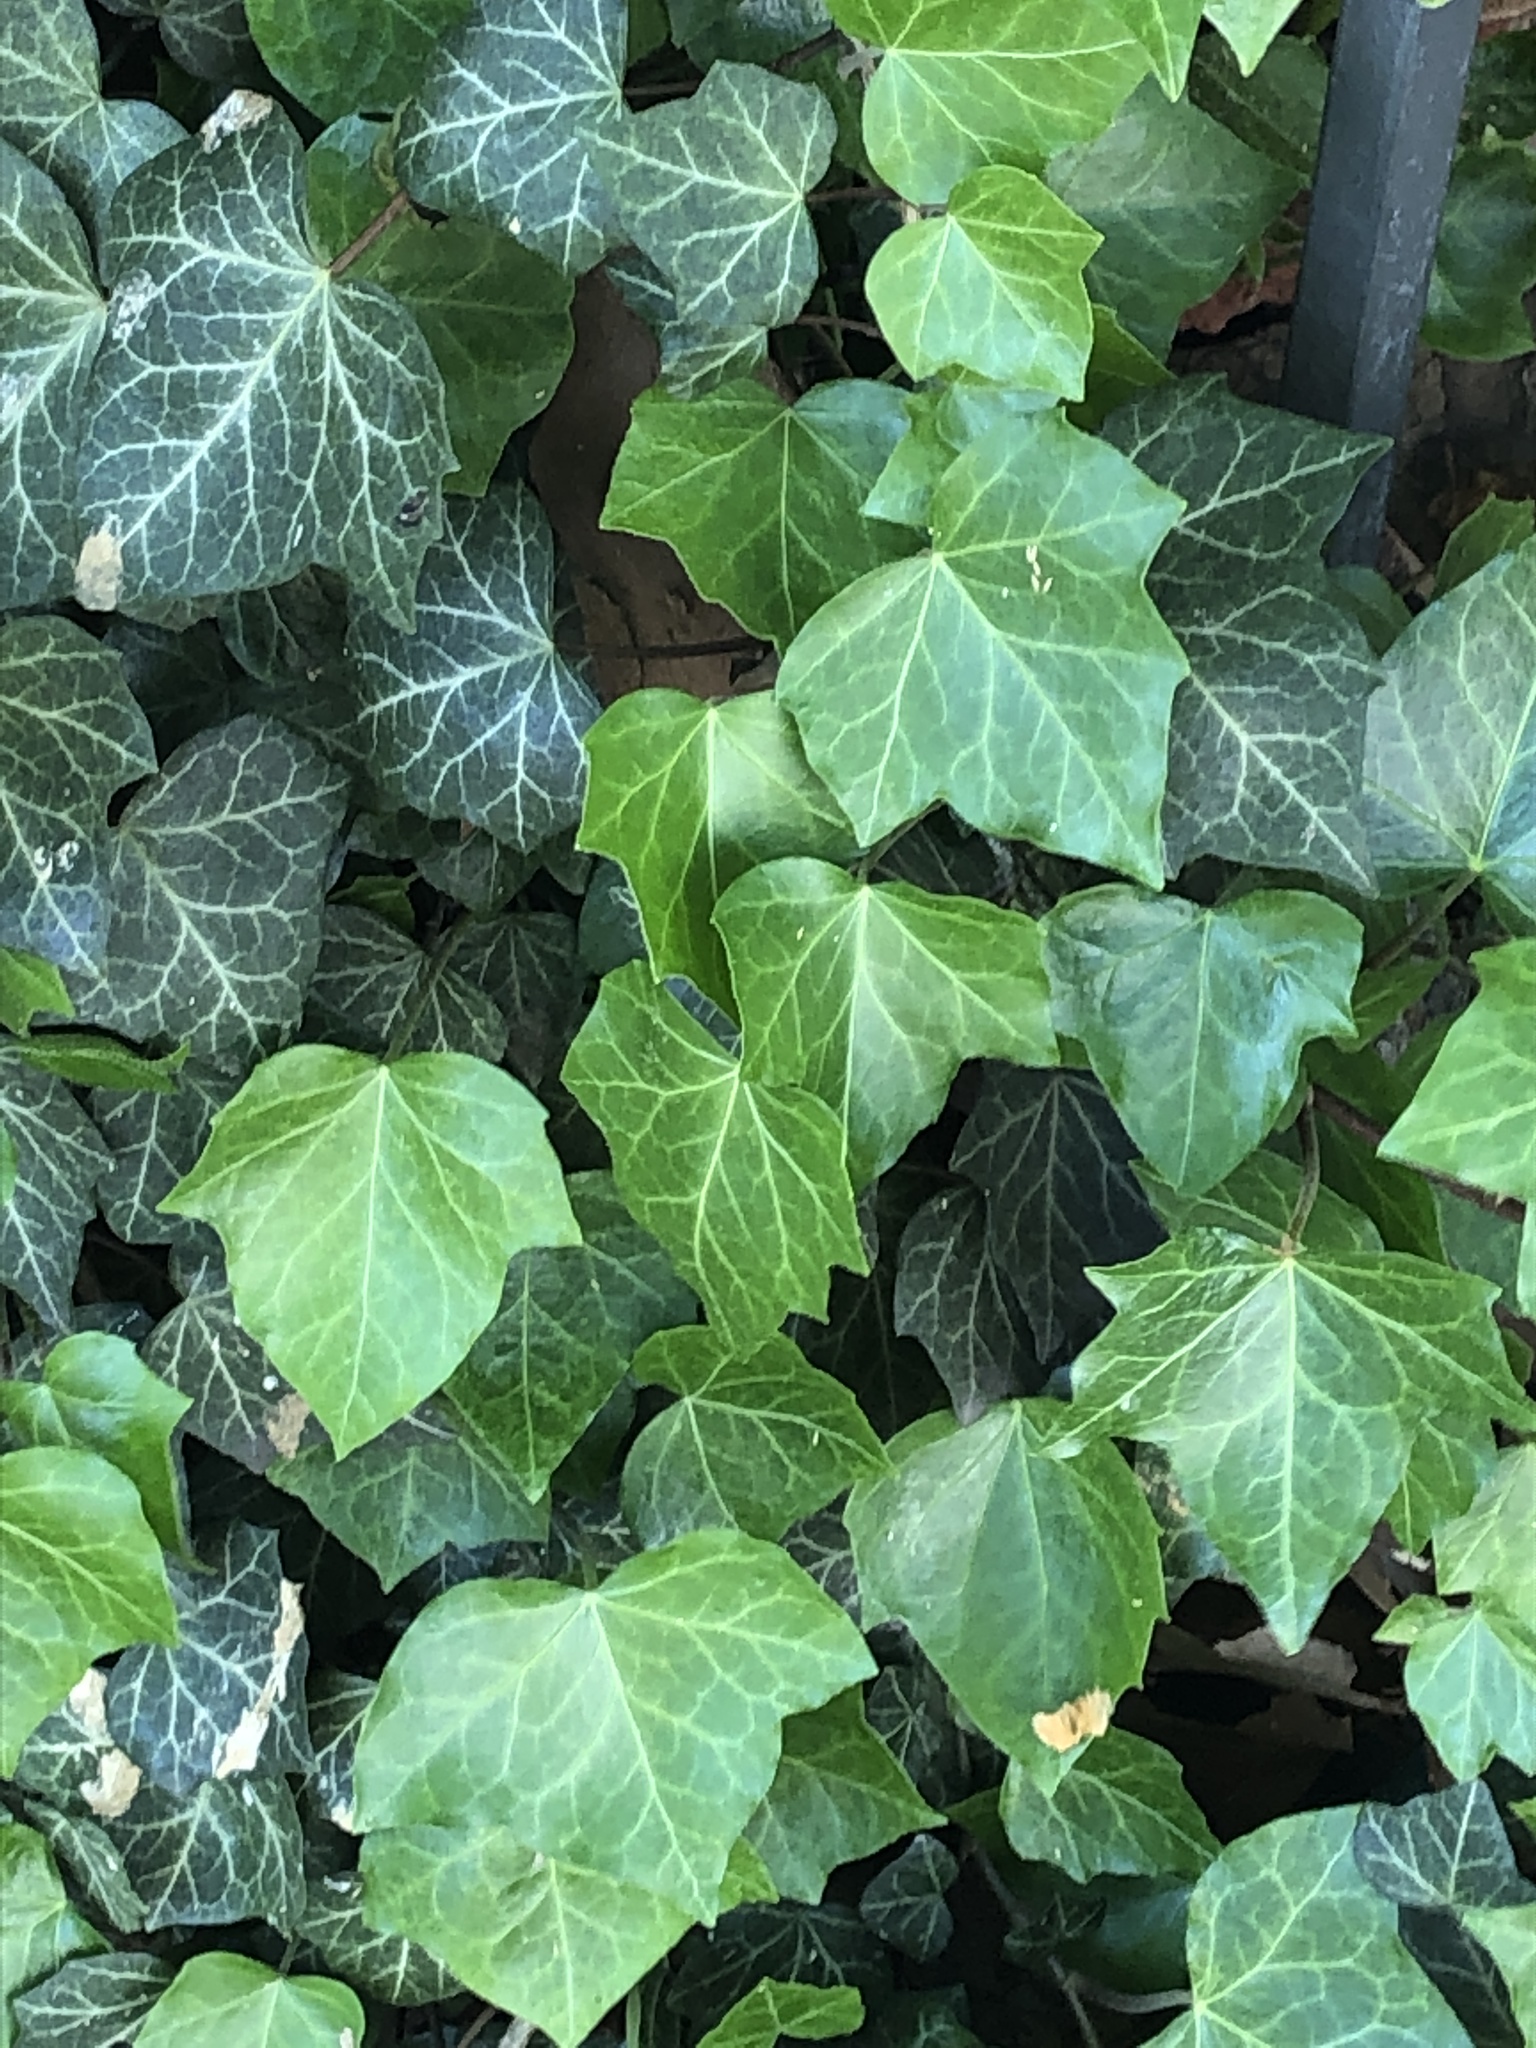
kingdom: Plantae
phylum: Tracheophyta
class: Magnoliopsida
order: Apiales
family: Araliaceae
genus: Hedera
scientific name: Hedera helix
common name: Ivy
